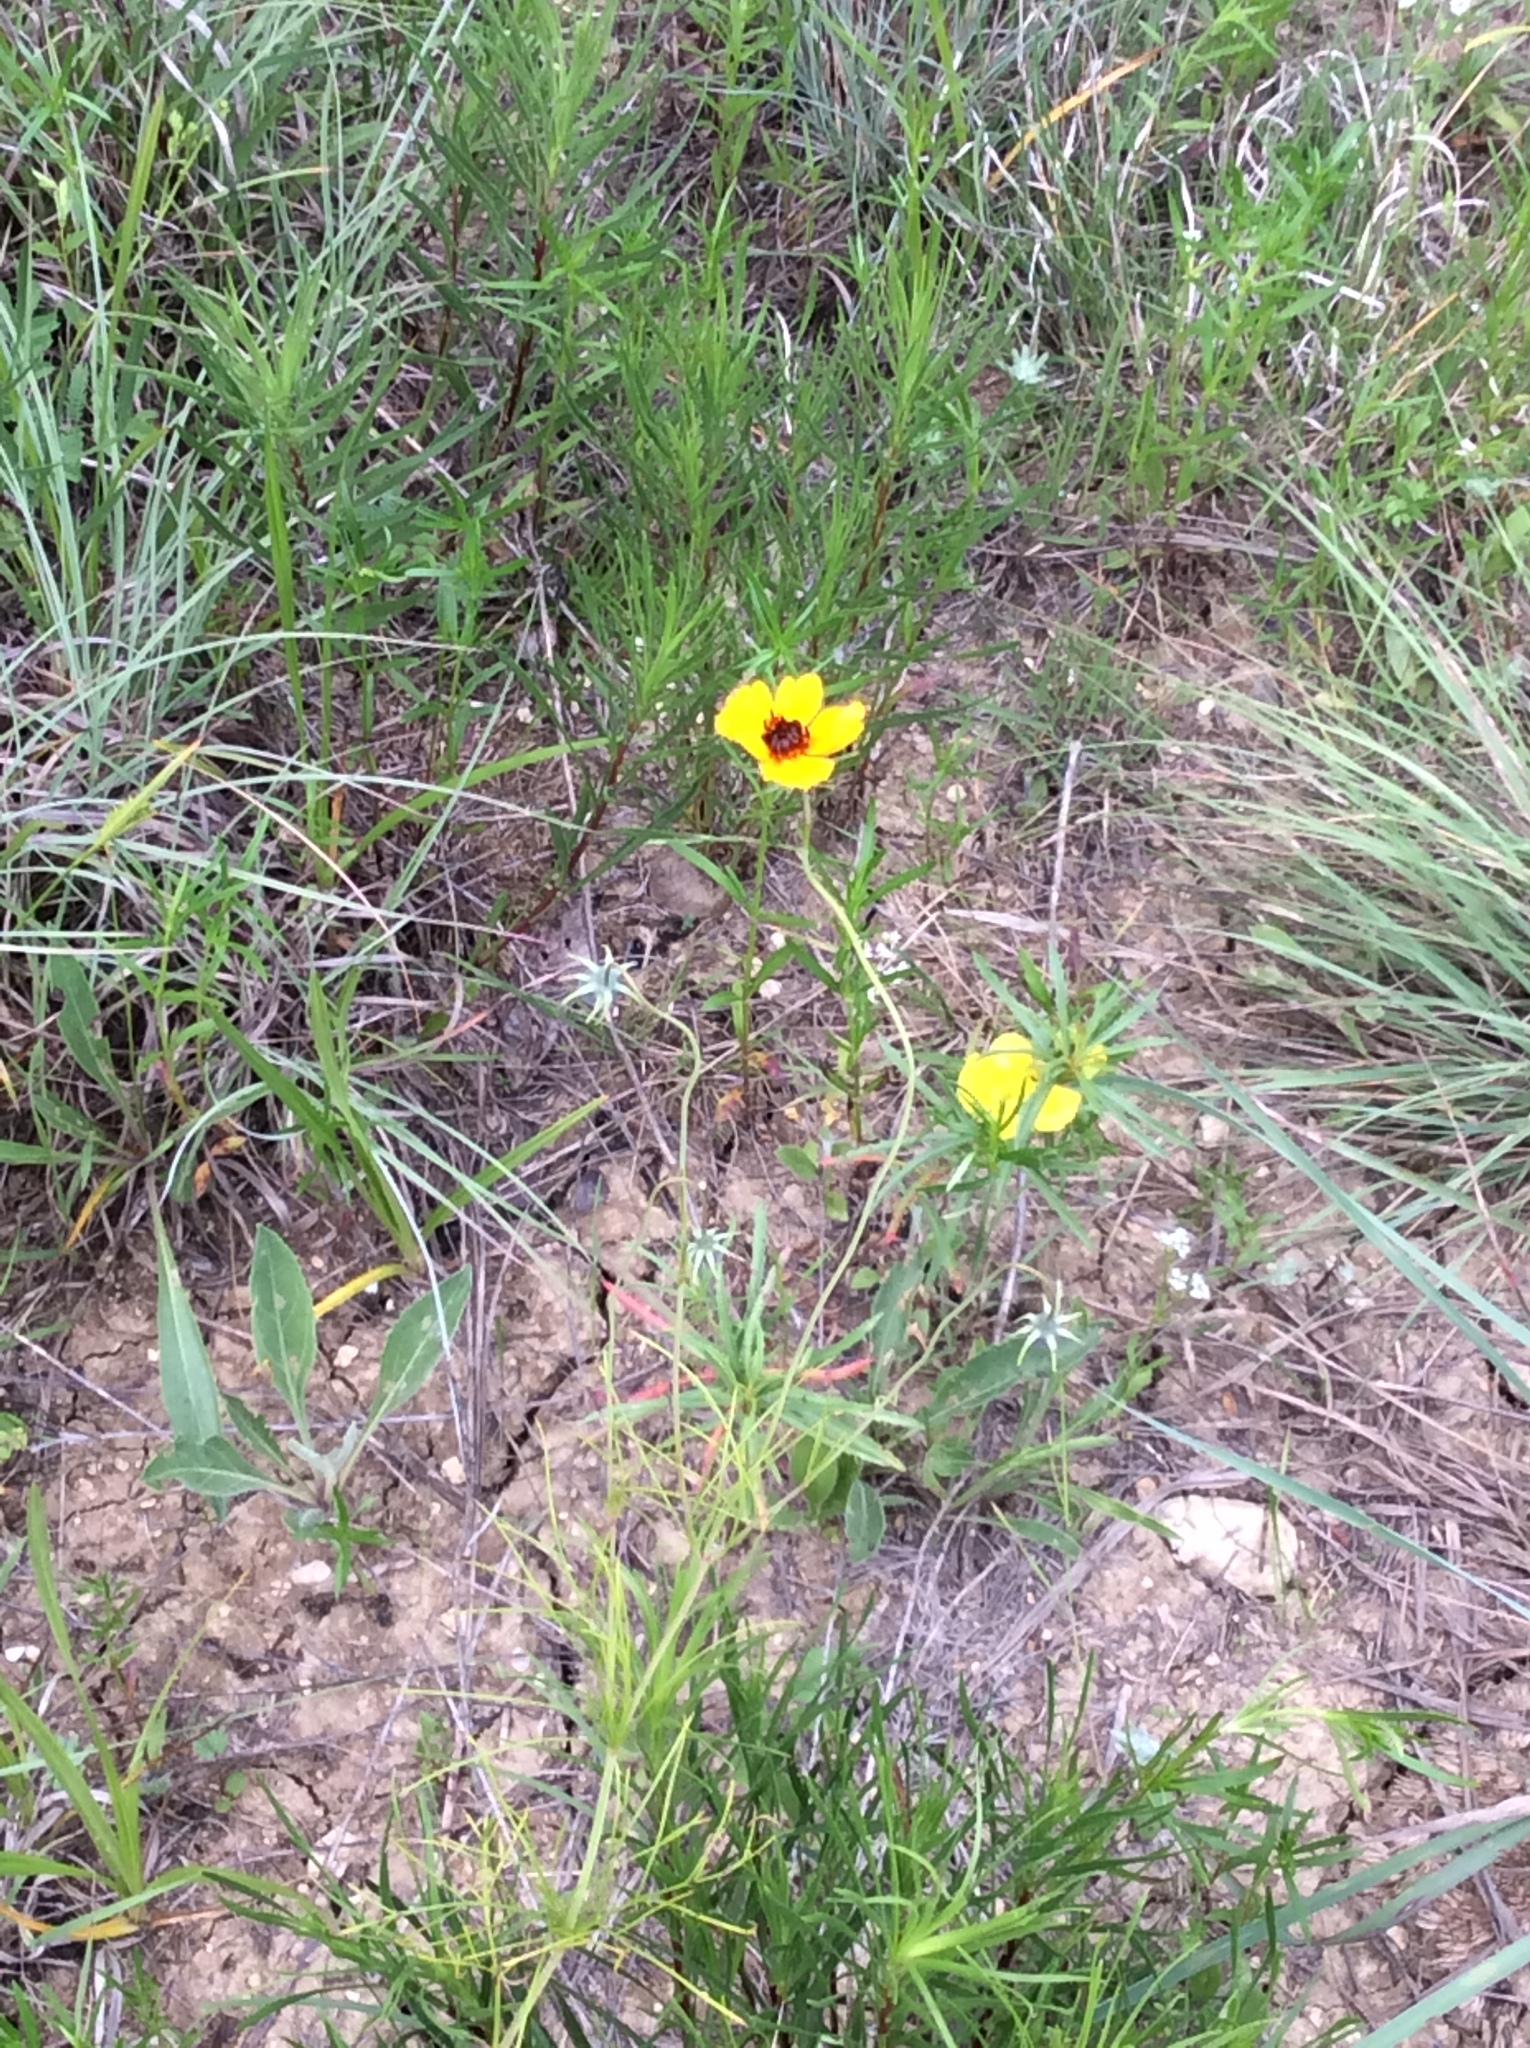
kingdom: Plantae
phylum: Tracheophyta
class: Magnoliopsida
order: Asterales
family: Asteraceae
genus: Thelesperma
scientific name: Thelesperma filifolium
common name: Stiff greenthread
